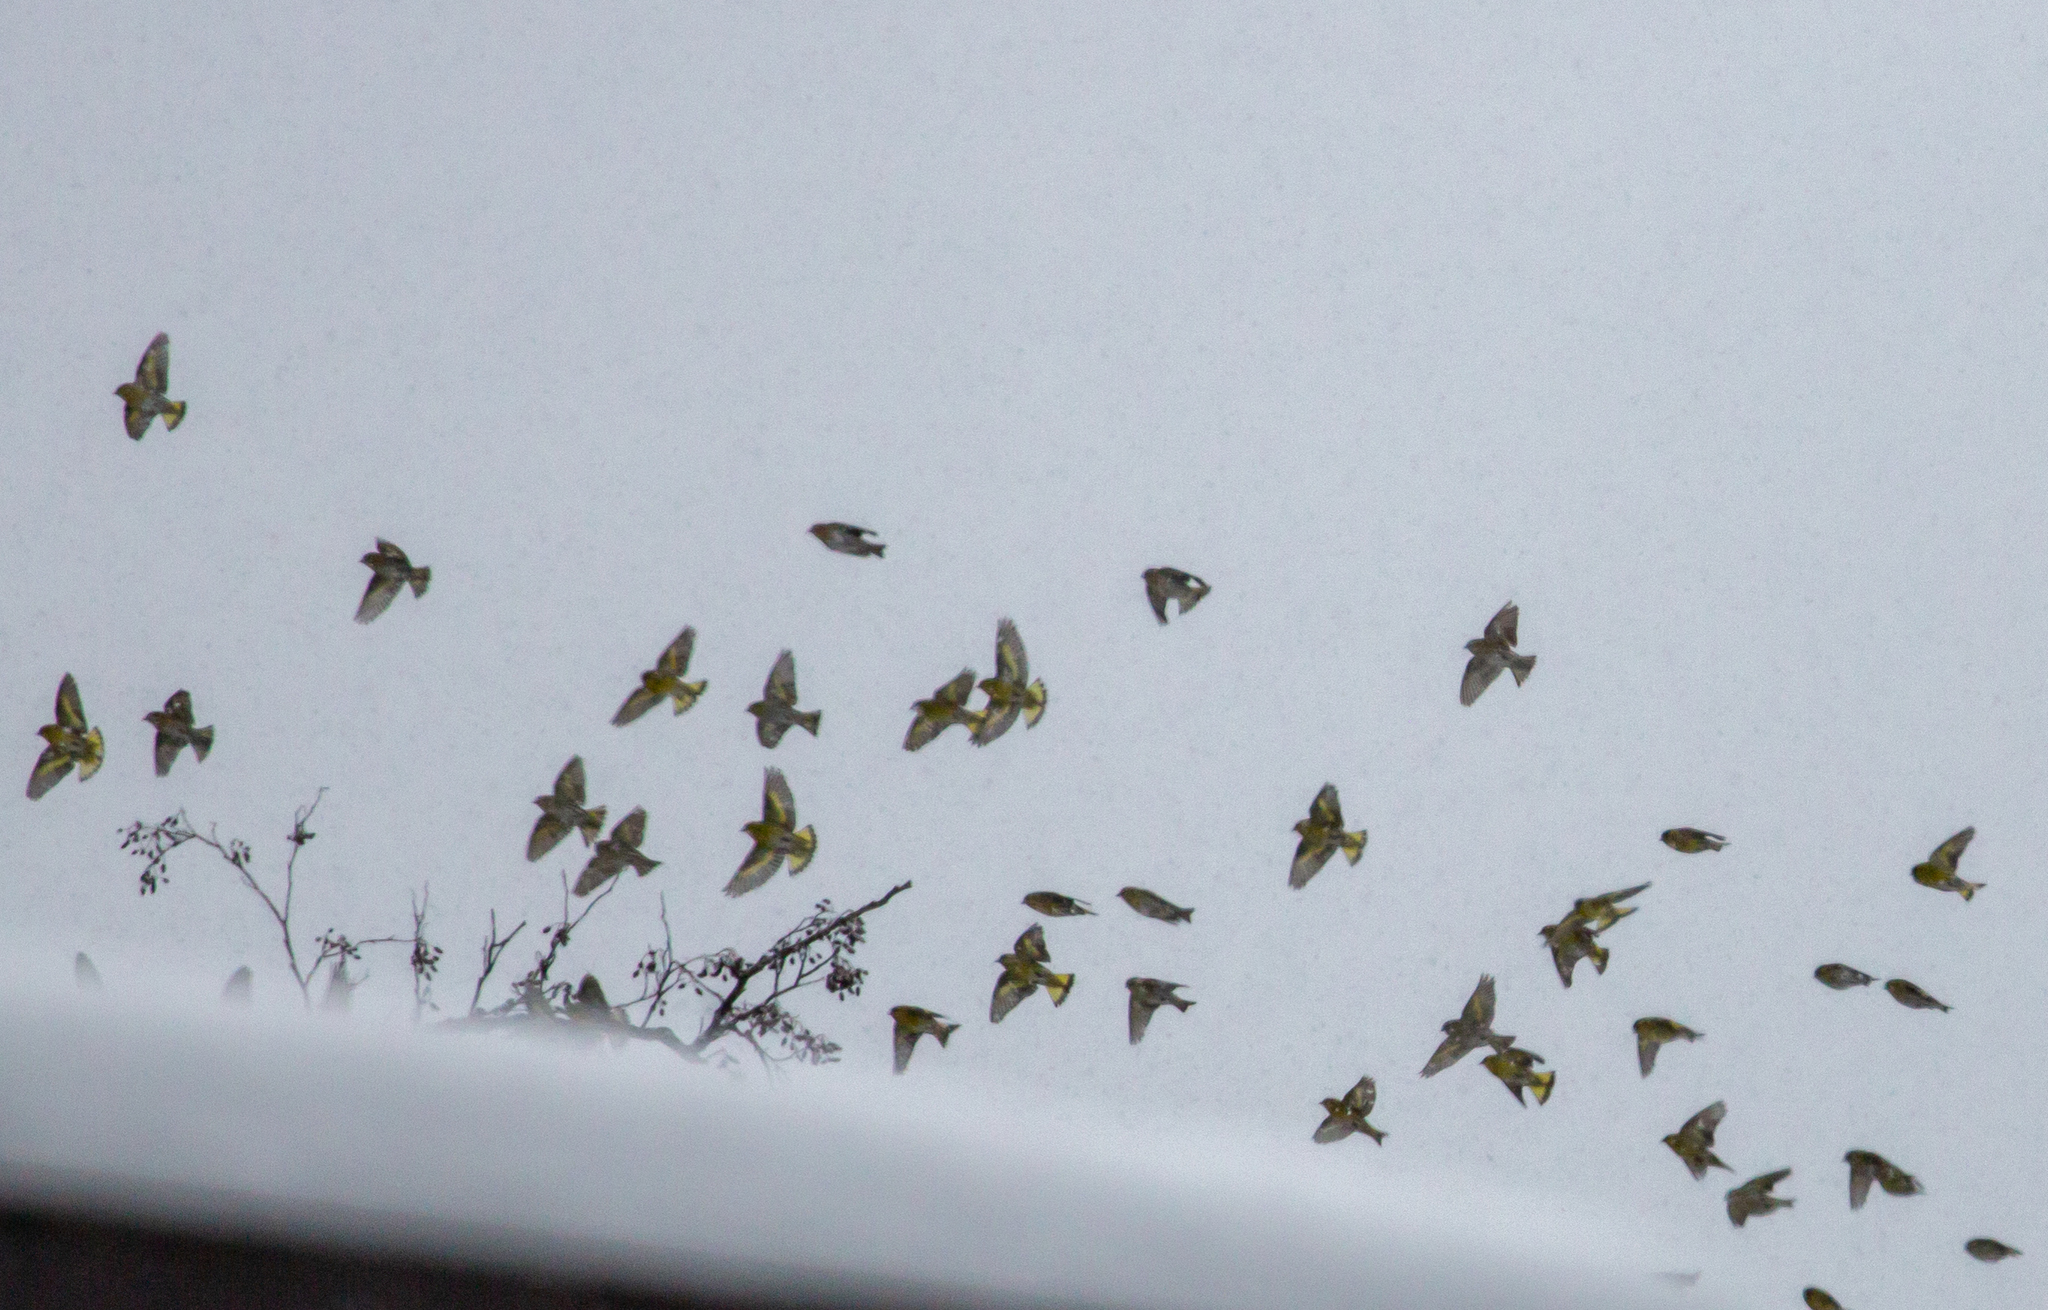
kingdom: Animalia
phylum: Chordata
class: Aves
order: Passeriformes
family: Fringillidae
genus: Spinus
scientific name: Spinus spinus
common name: Eurasian siskin
